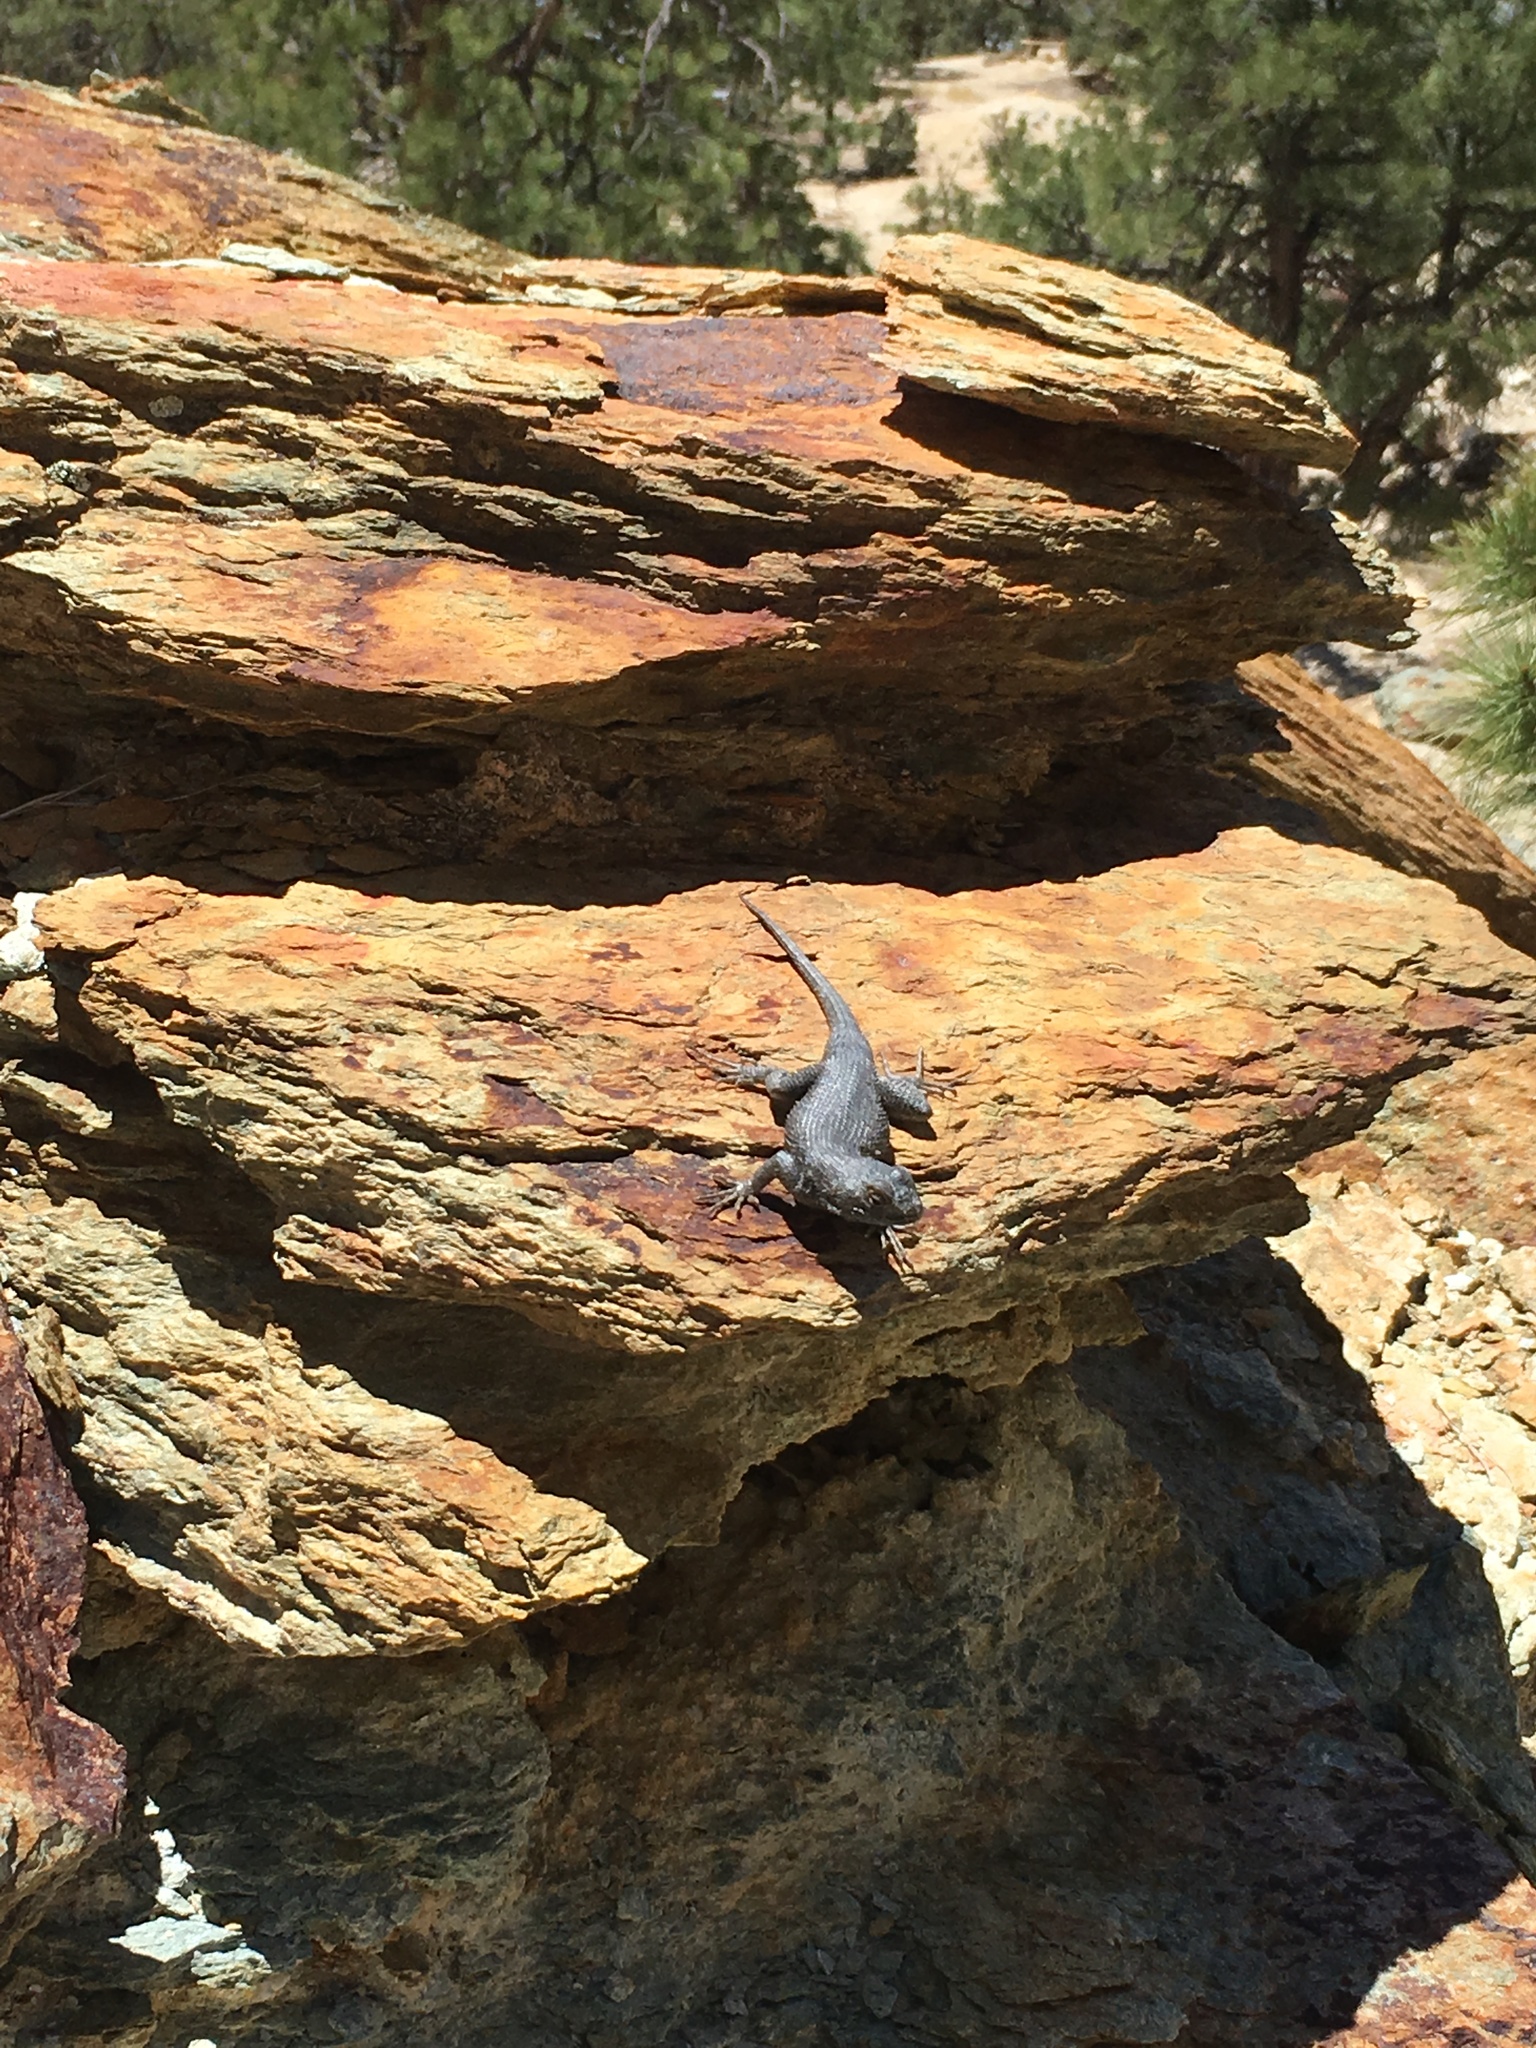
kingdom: Animalia
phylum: Chordata
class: Squamata
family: Phrynosomatidae
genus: Sceloporus
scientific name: Sceloporus occidentalis
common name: Western fence lizard
